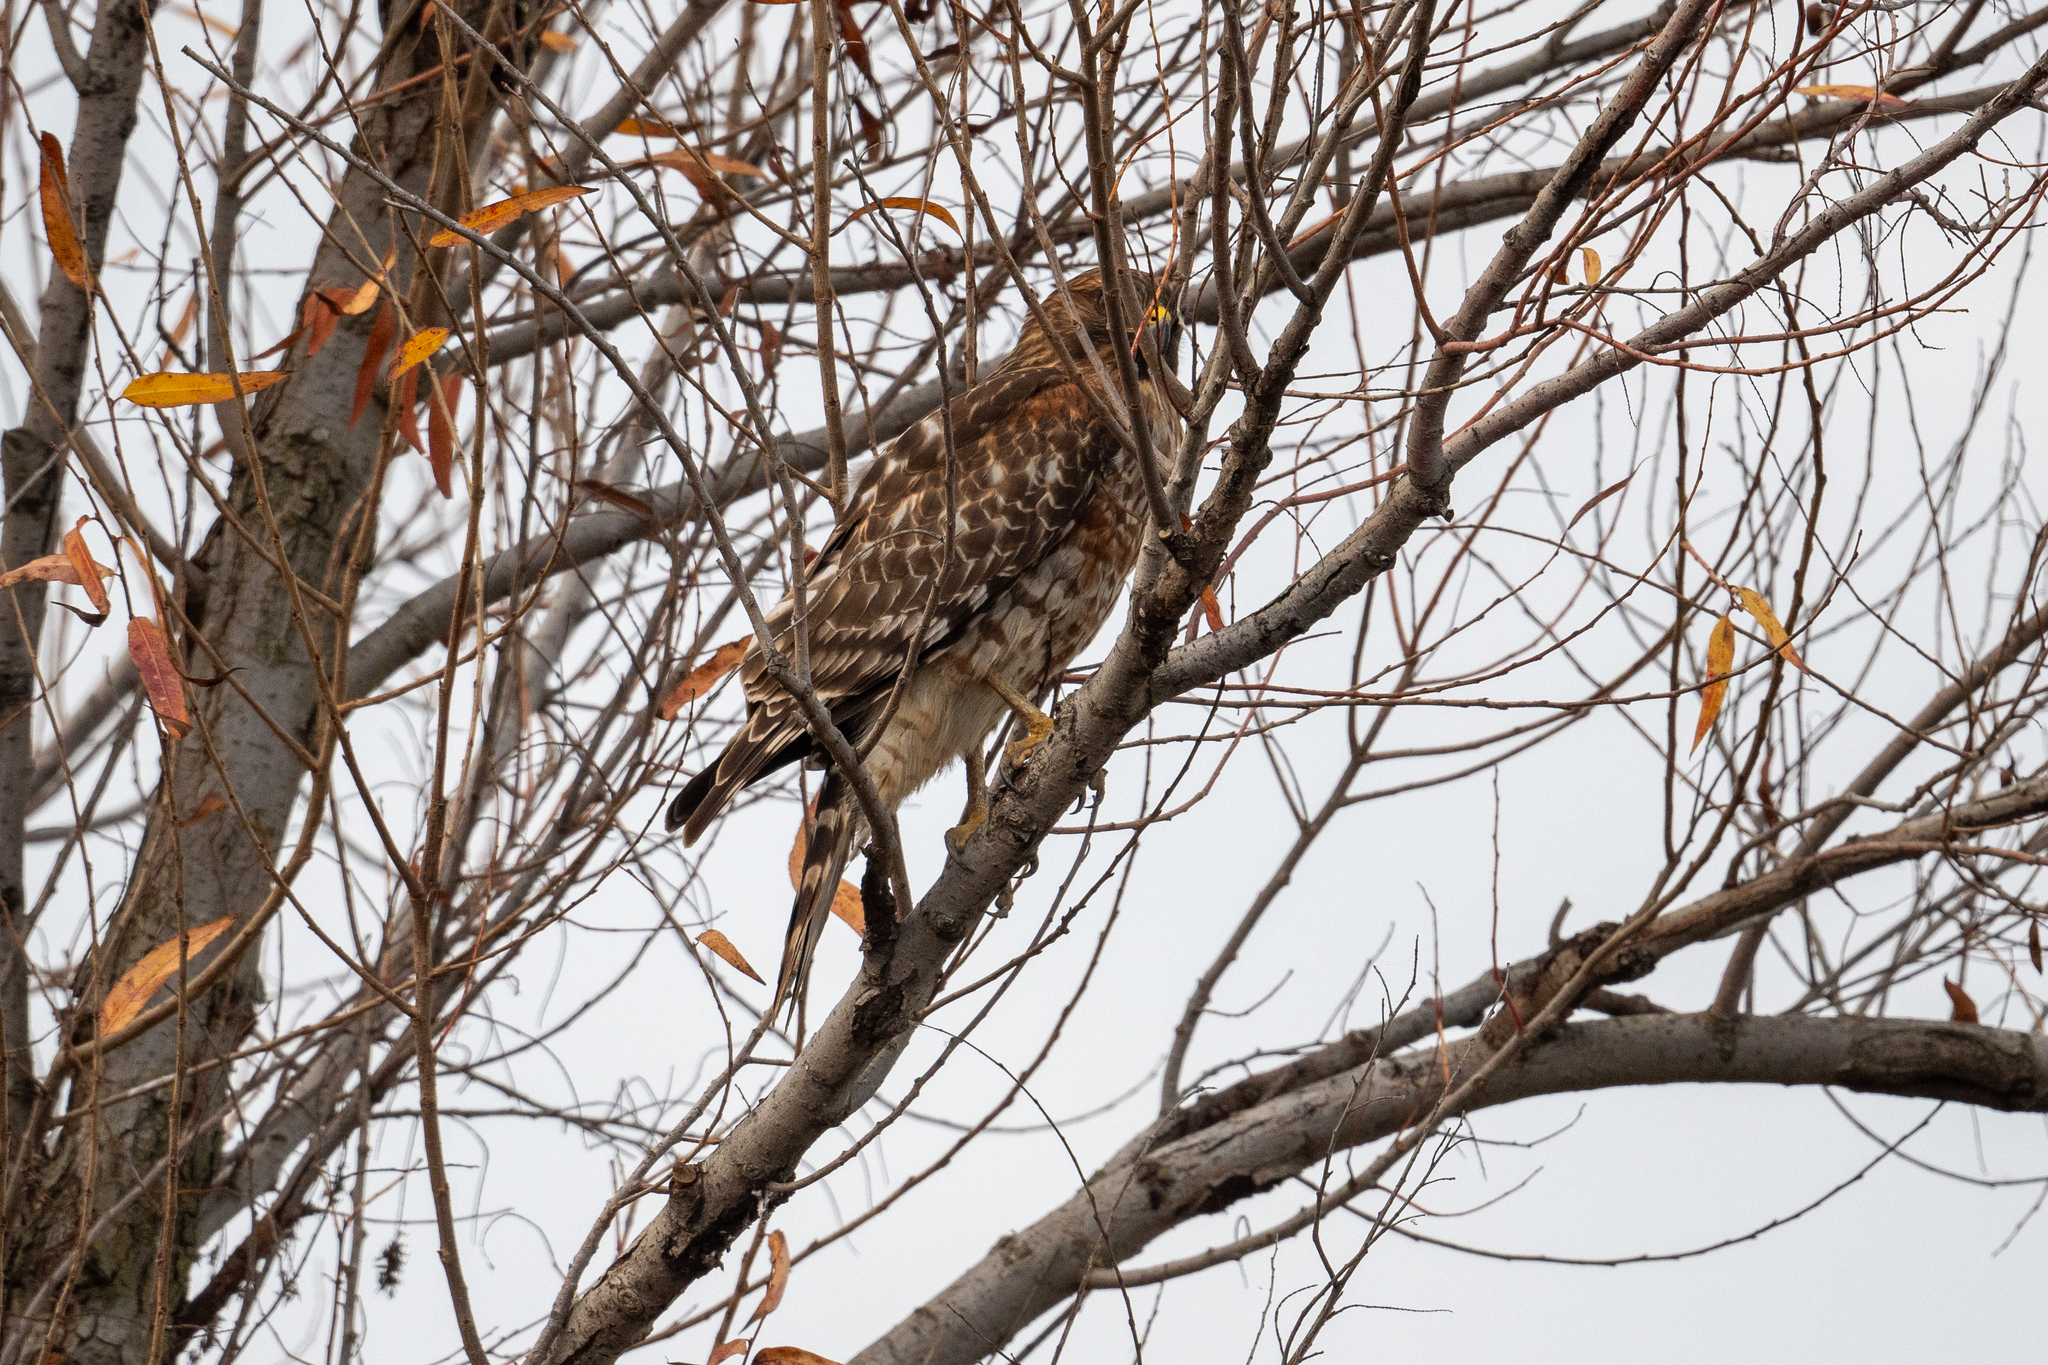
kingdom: Animalia
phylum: Chordata
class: Aves
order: Accipitriformes
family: Accipitridae
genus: Buteo
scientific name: Buteo lineatus
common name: Red-shouldered hawk
